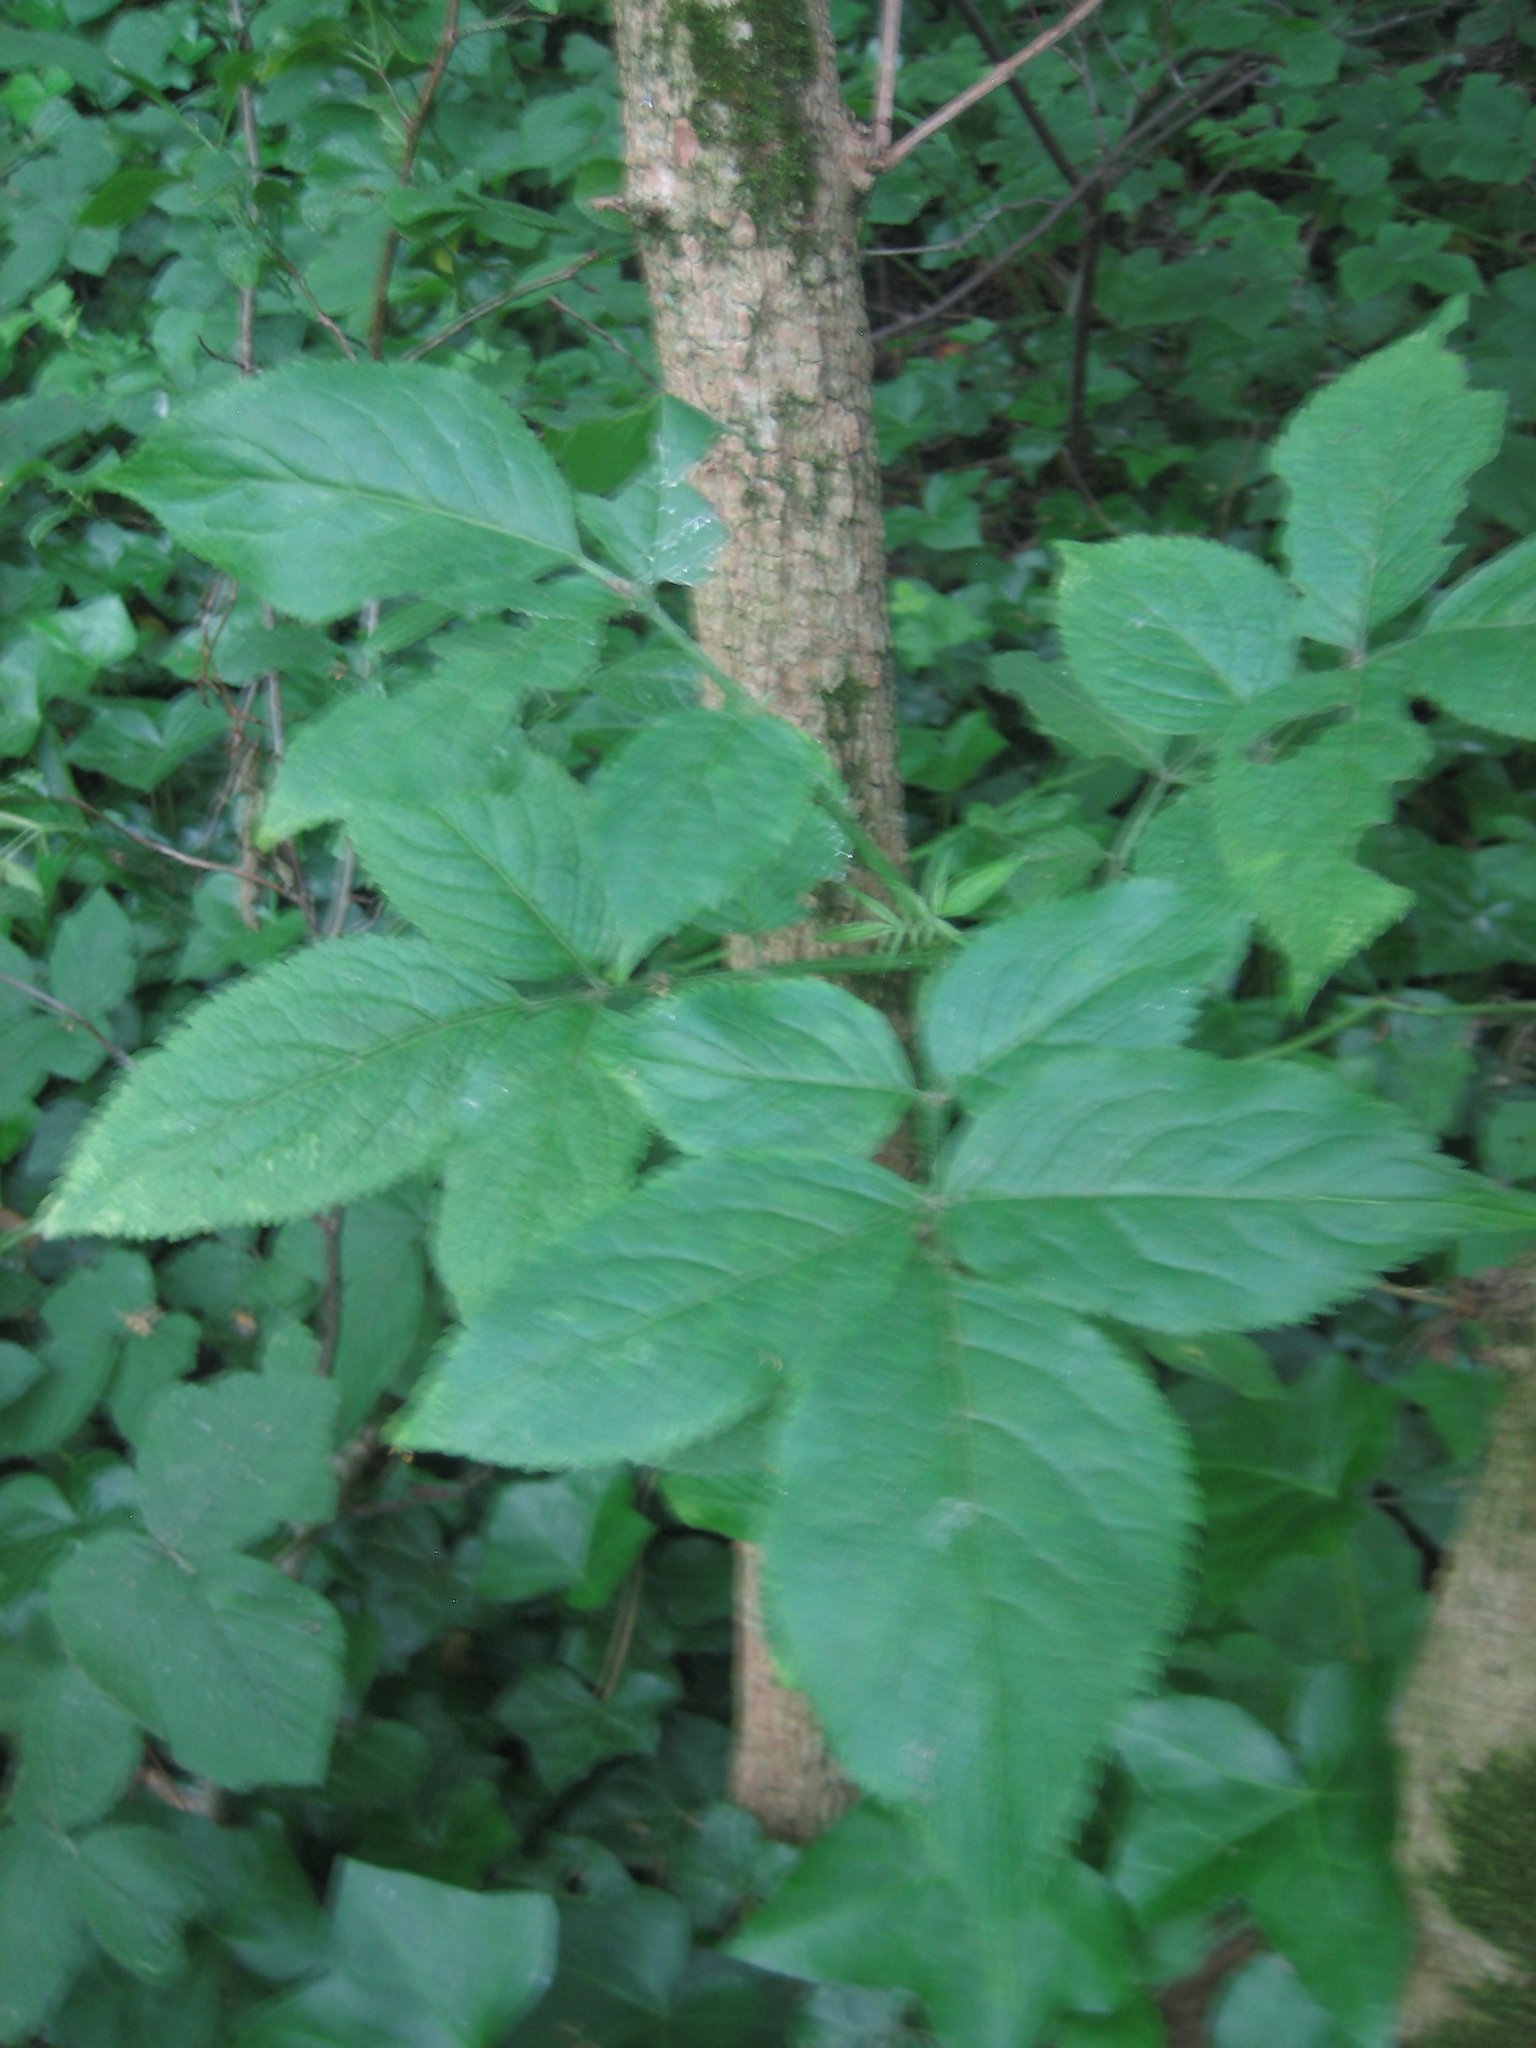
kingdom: Plantae
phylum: Tracheophyta
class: Magnoliopsida
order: Dipsacales
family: Viburnaceae
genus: Sambucus
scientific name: Sambucus nigra
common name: Elder
